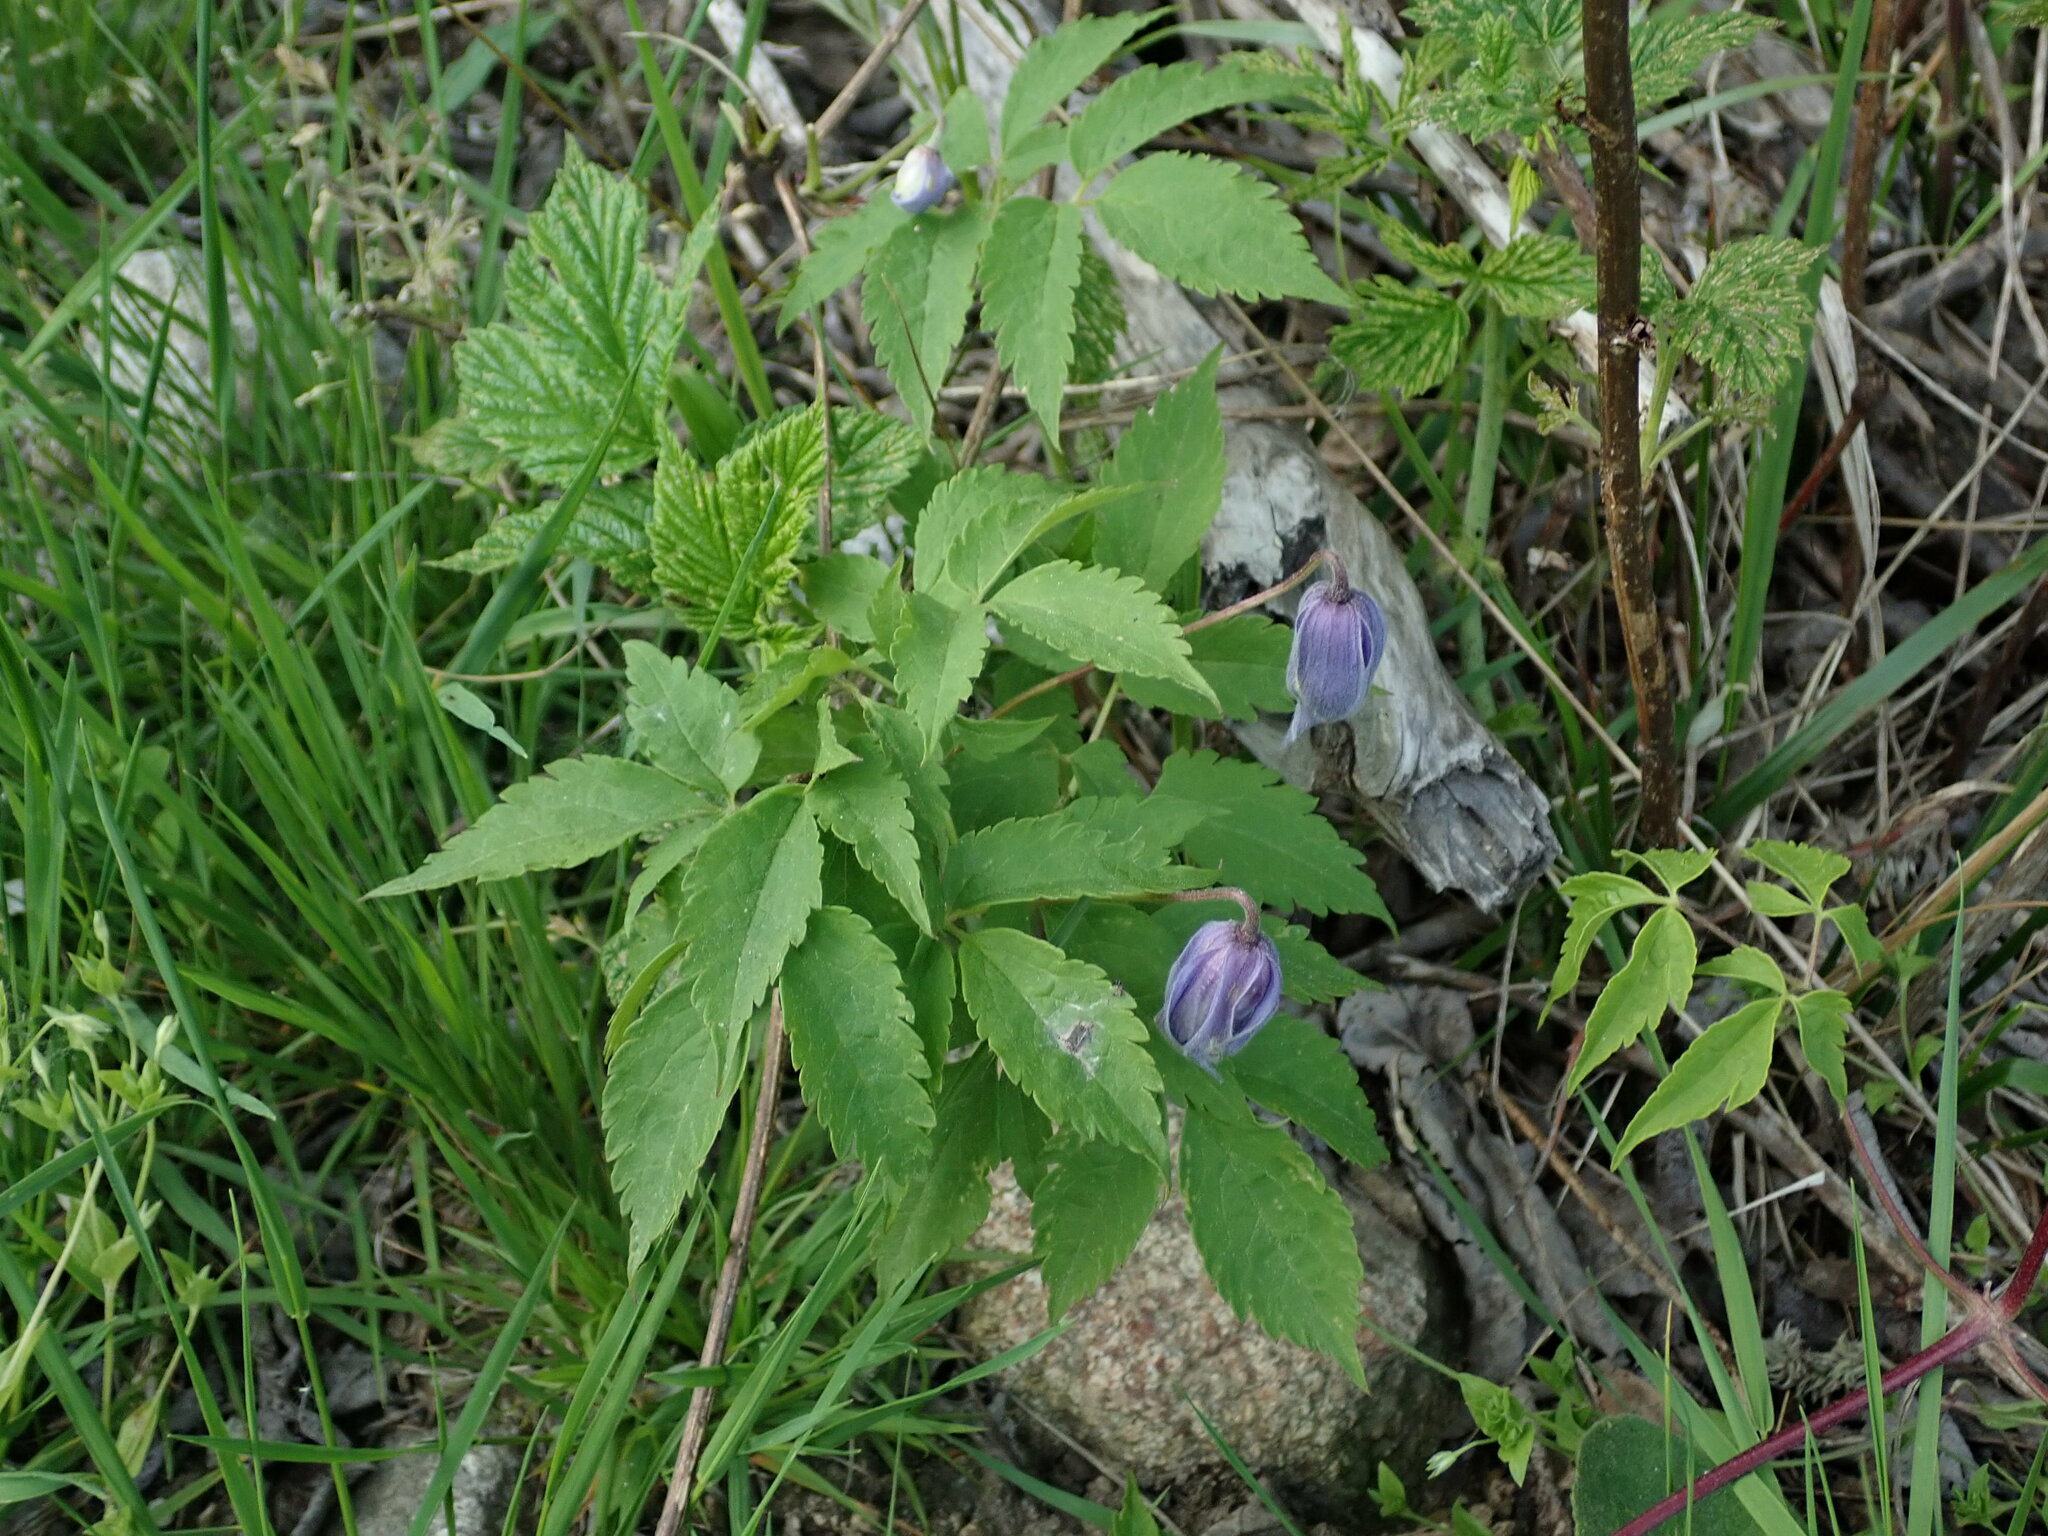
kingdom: Plantae
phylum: Tracheophyta
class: Magnoliopsida
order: Ranunculales
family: Ranunculaceae
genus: Clematis
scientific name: Clematis alpina
